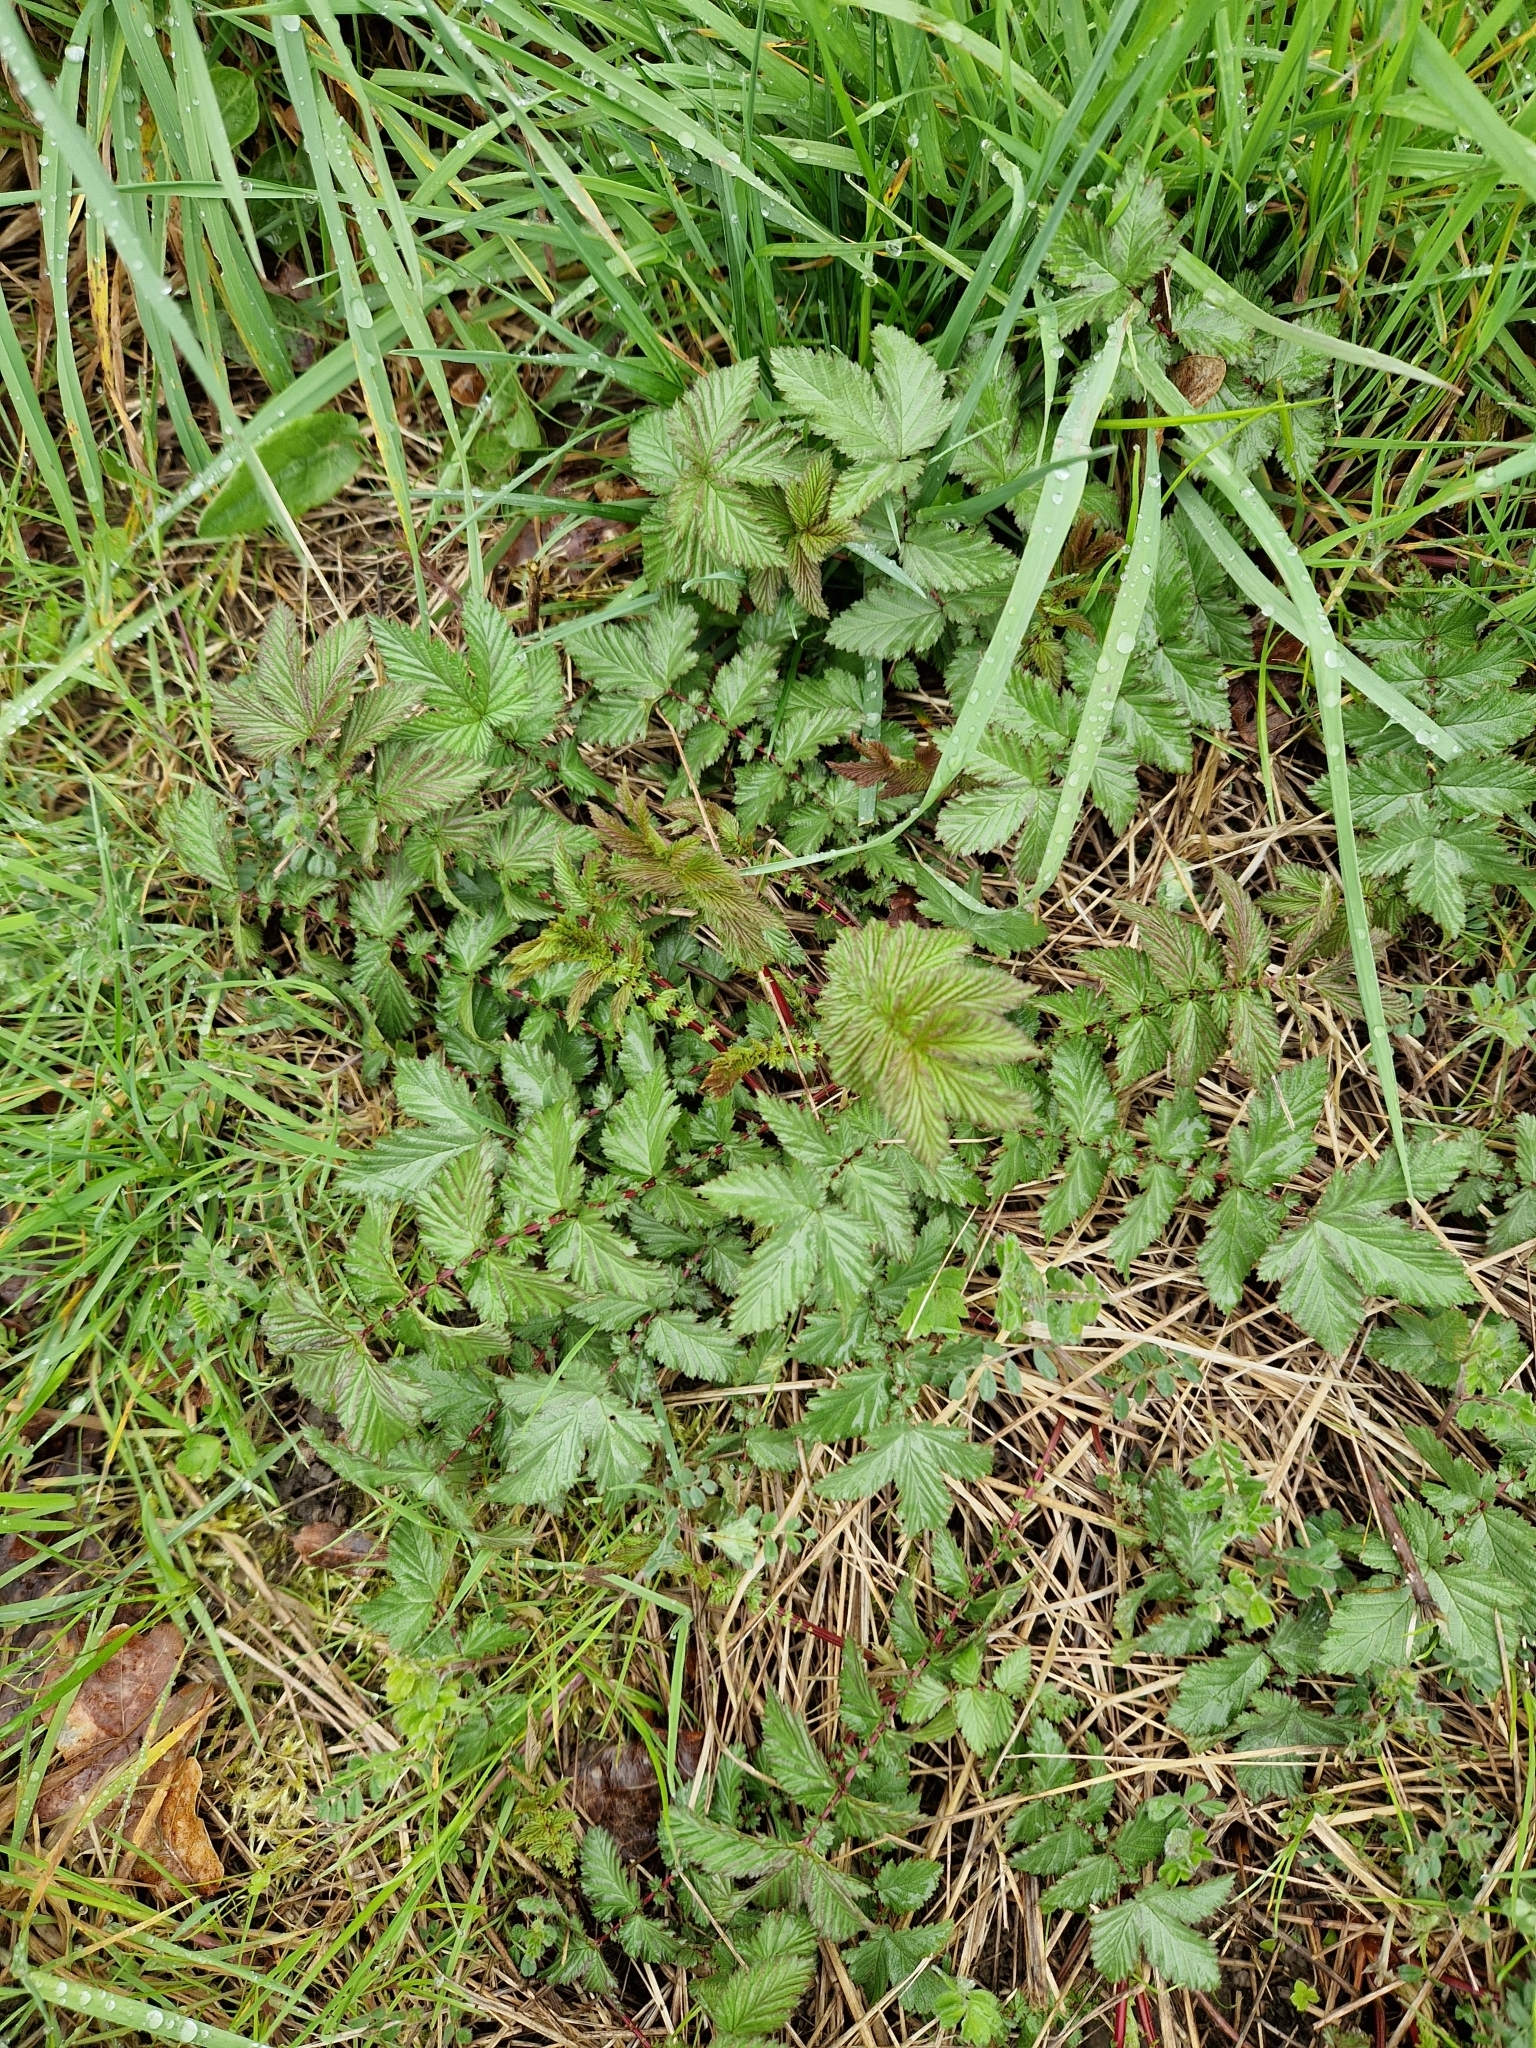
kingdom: Plantae
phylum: Tracheophyta
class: Magnoliopsida
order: Rosales
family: Rosaceae
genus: Filipendula
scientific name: Filipendula ulmaria
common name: Meadowsweet
